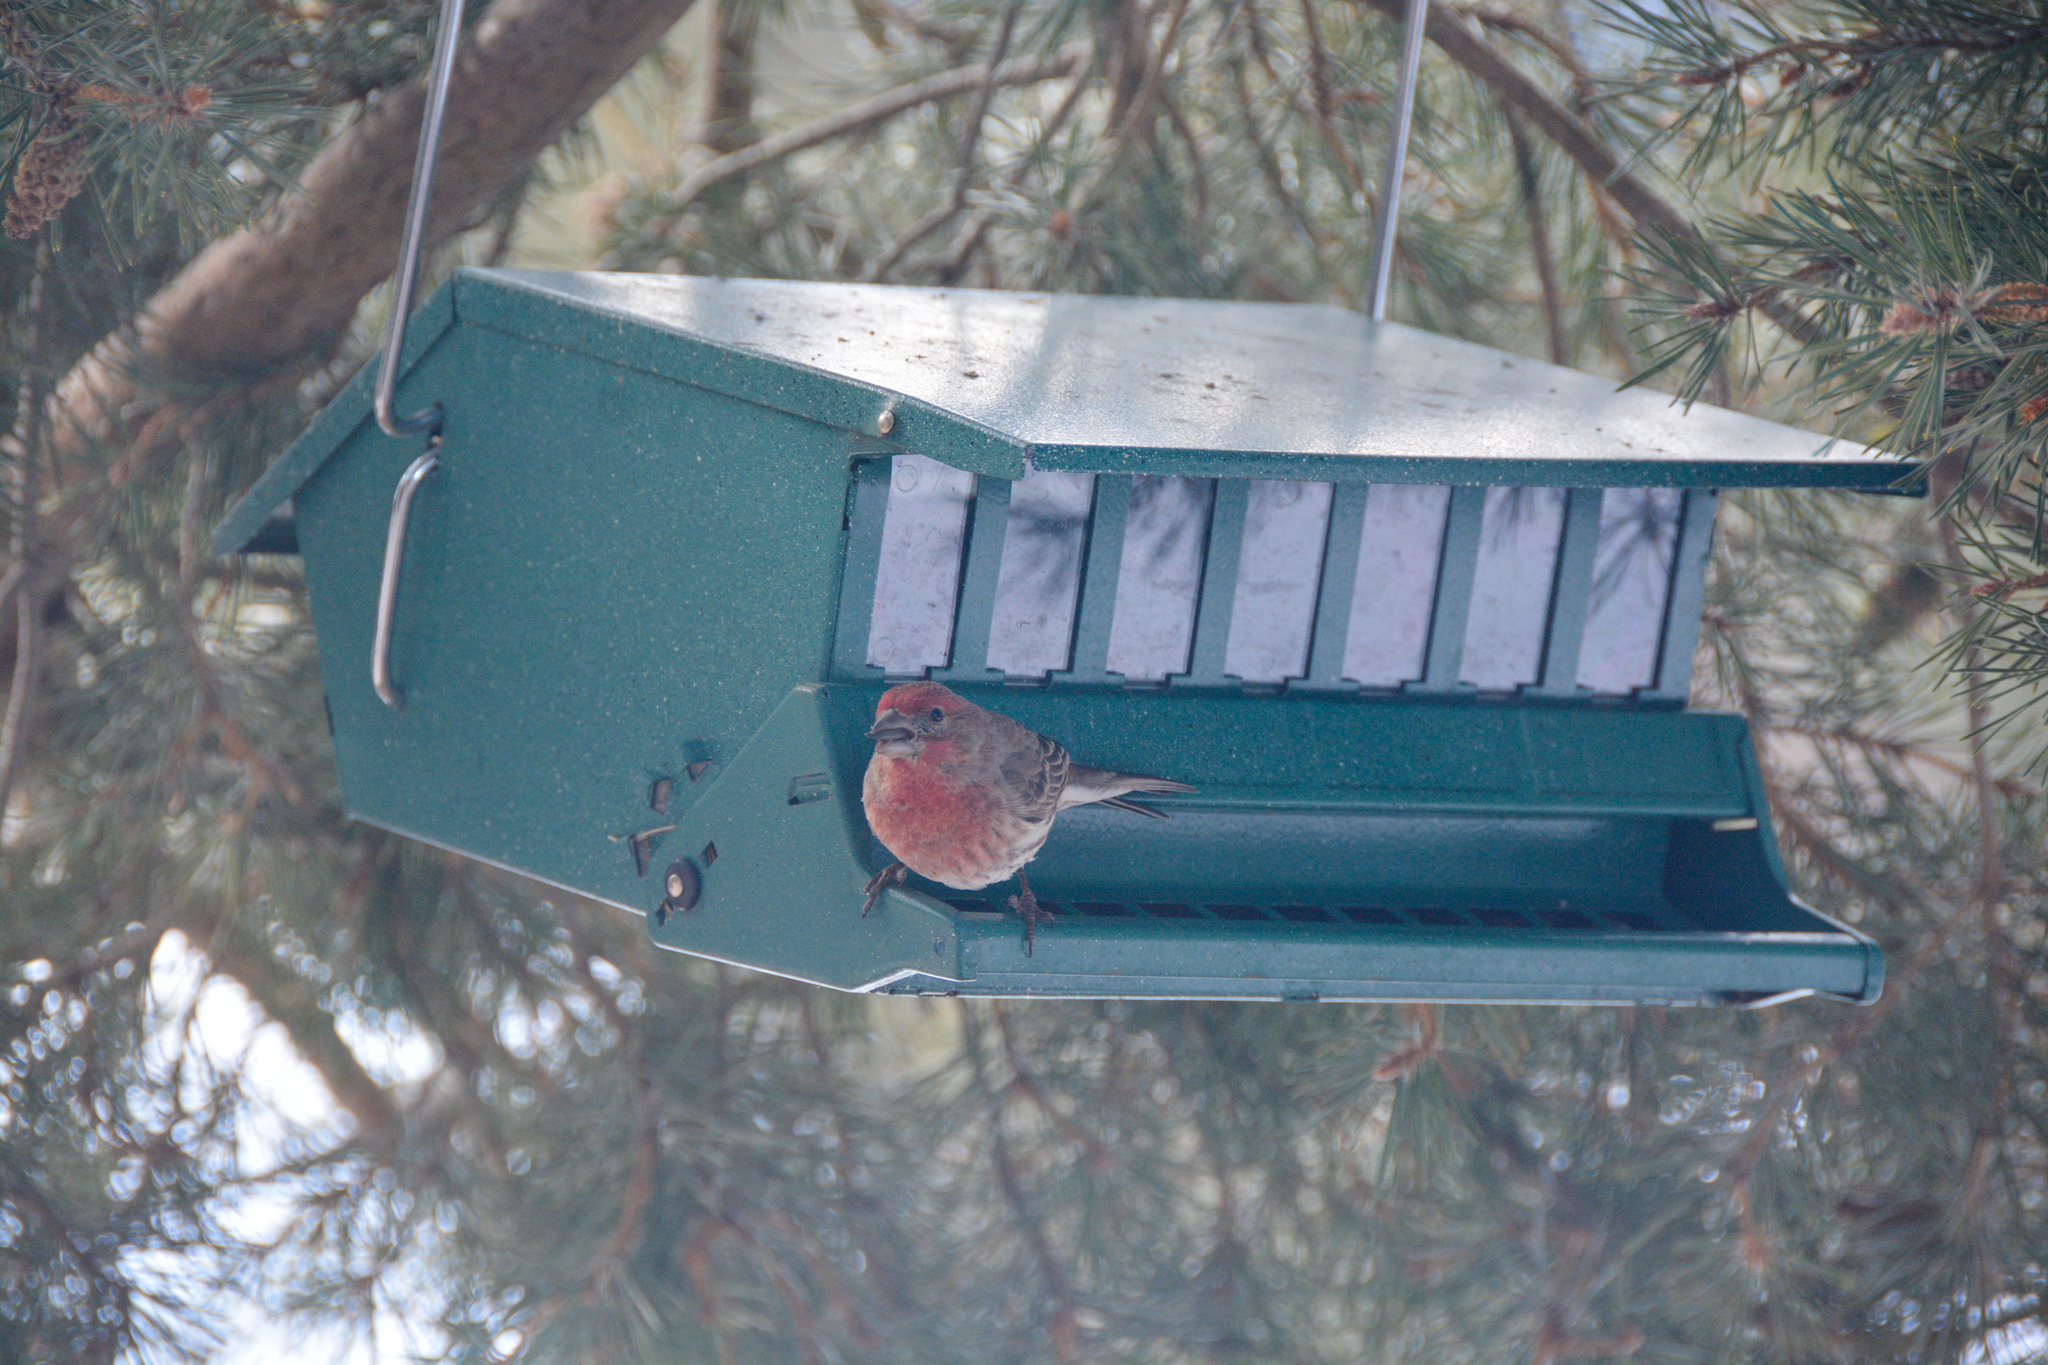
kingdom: Animalia
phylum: Chordata
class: Aves
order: Passeriformes
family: Fringillidae
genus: Haemorhous
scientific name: Haemorhous mexicanus
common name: House finch
